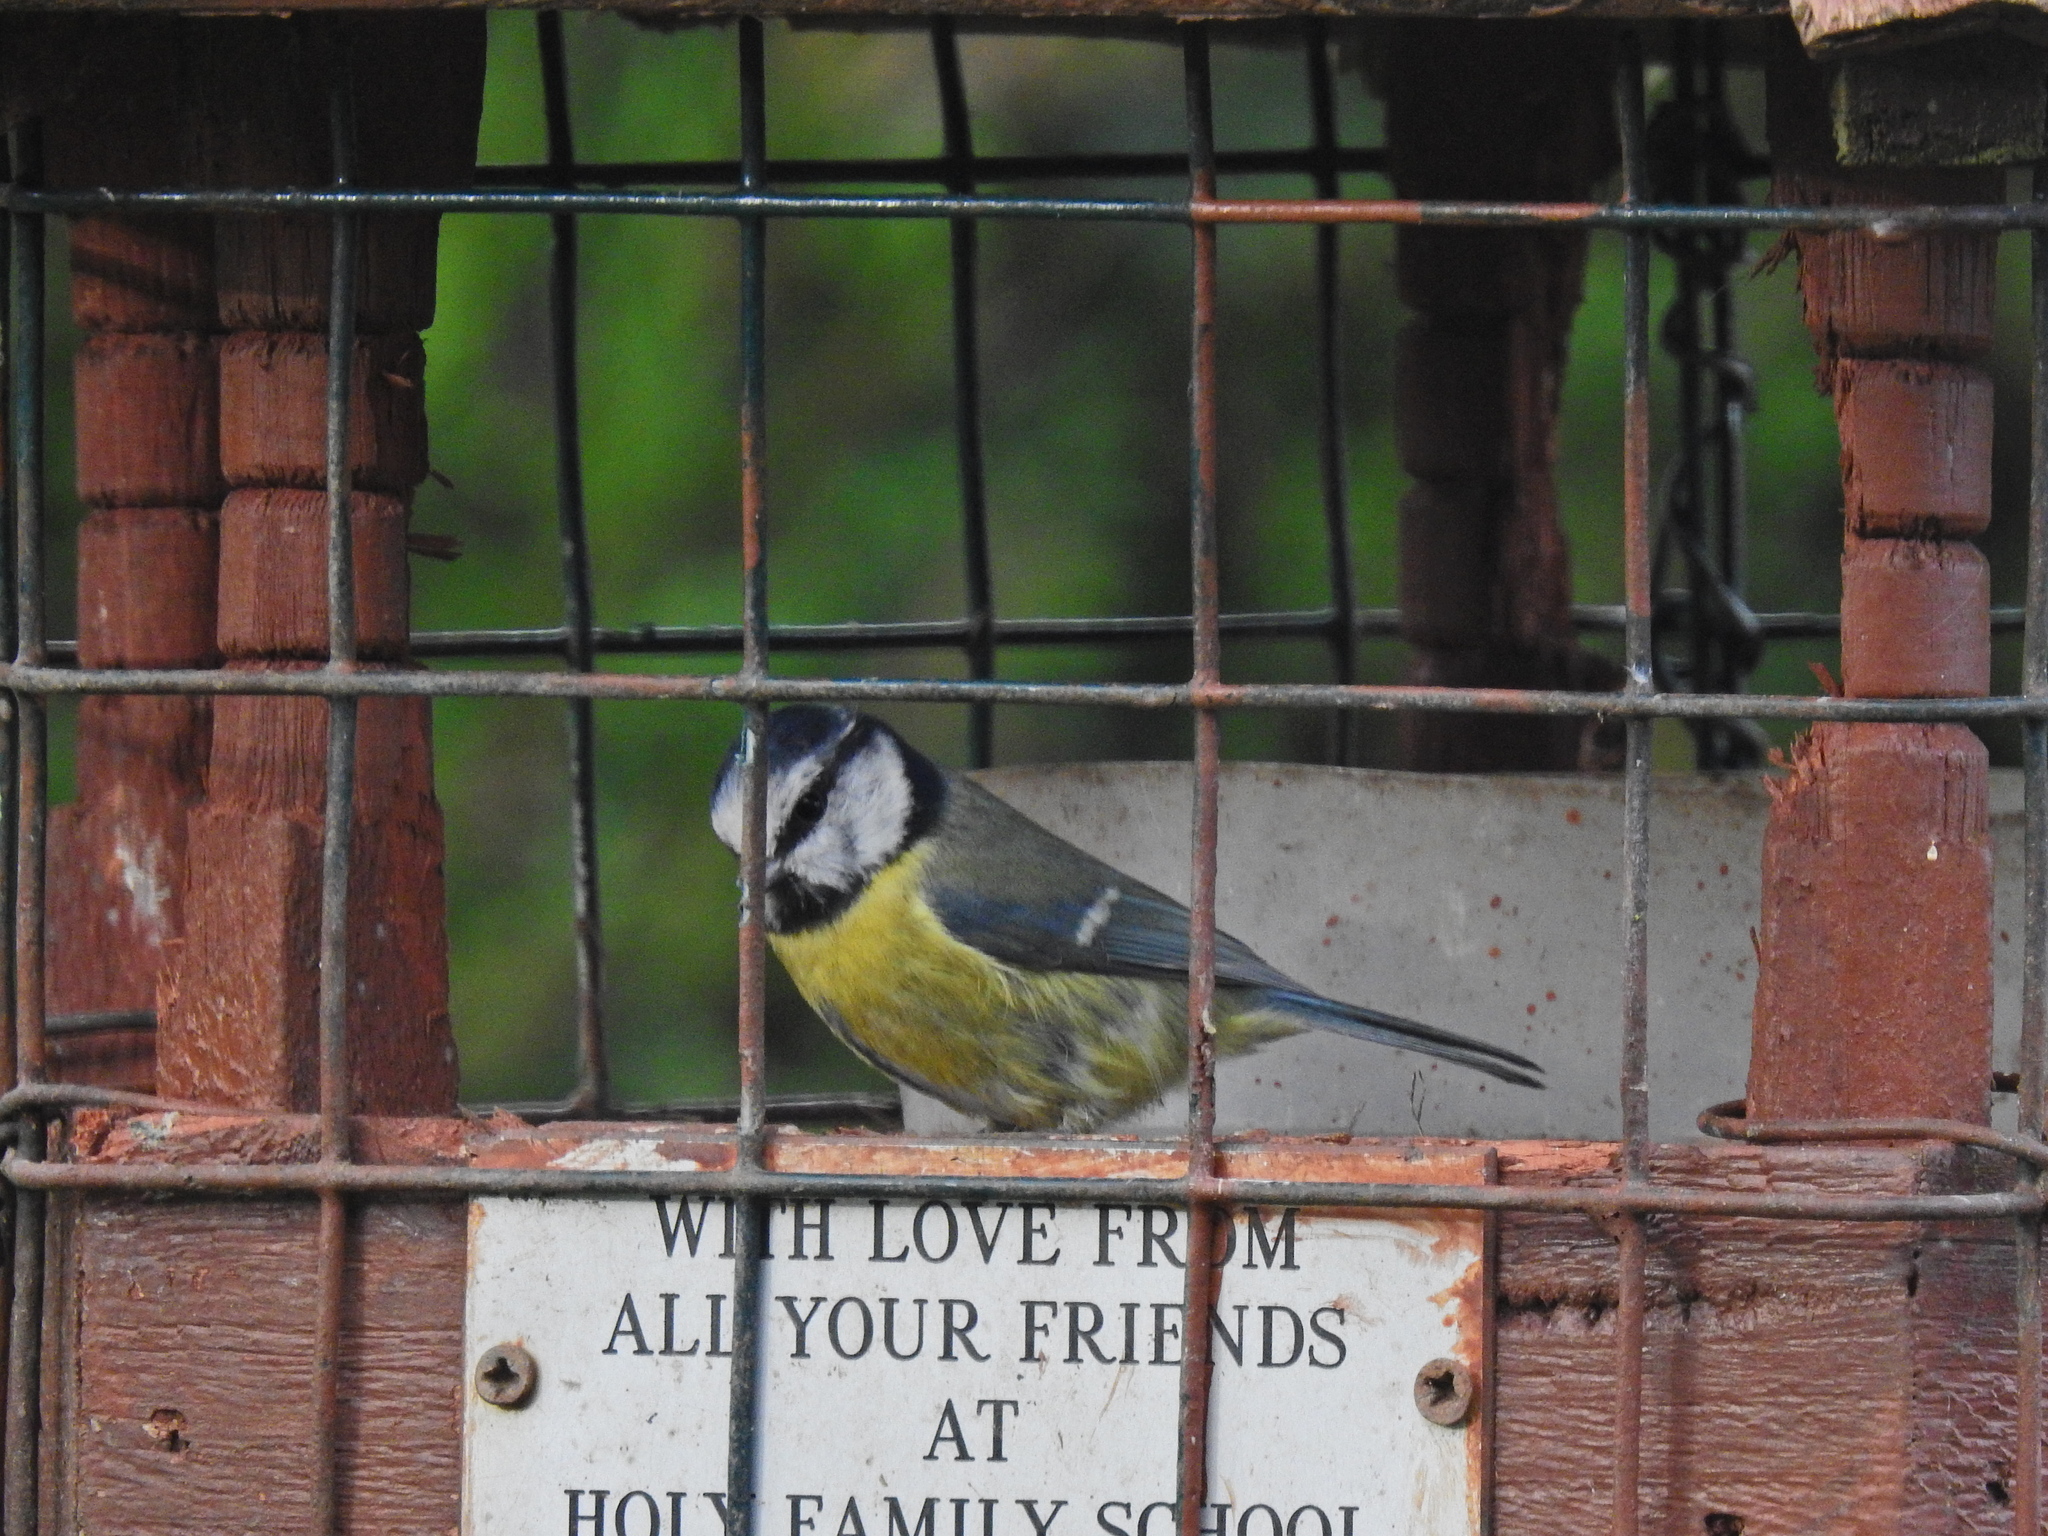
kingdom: Animalia
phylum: Chordata
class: Aves
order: Passeriformes
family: Paridae
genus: Cyanistes
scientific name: Cyanistes caeruleus
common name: Eurasian blue tit
